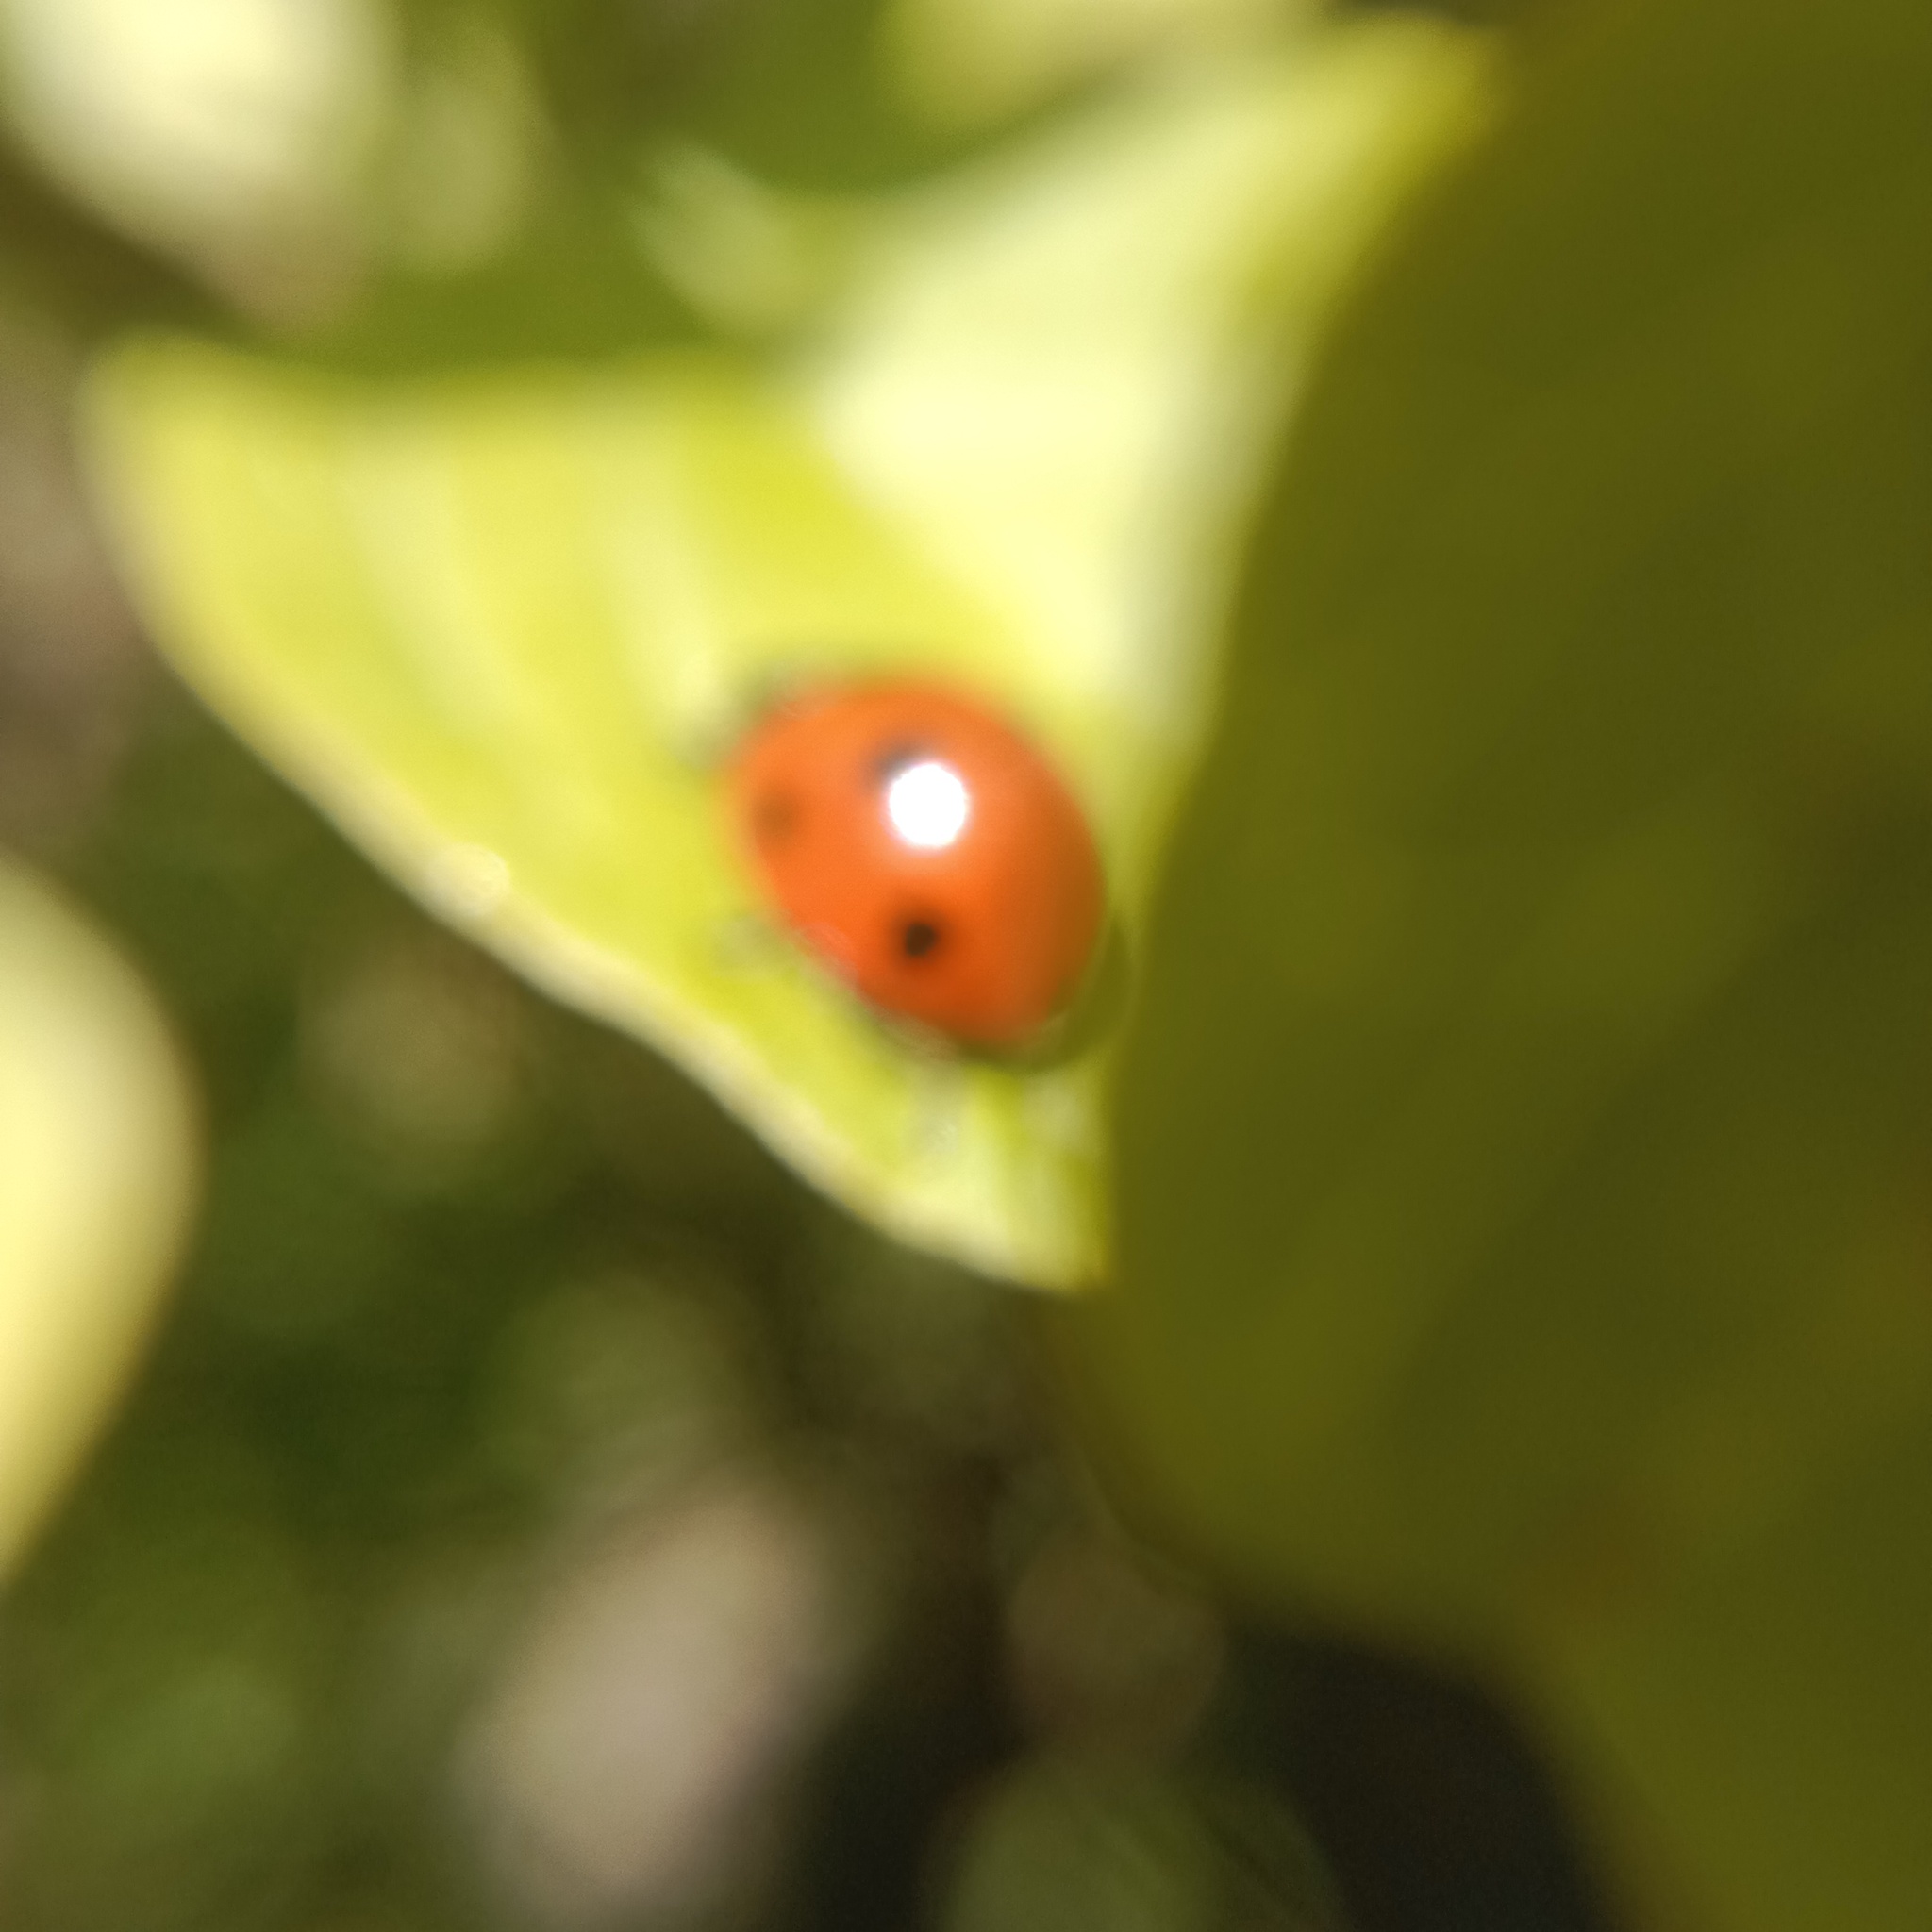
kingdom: Animalia
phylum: Arthropoda
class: Insecta
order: Coleoptera
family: Coccinellidae
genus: Coccinella
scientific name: Coccinella septempunctata
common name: Sevenspotted lady beetle
